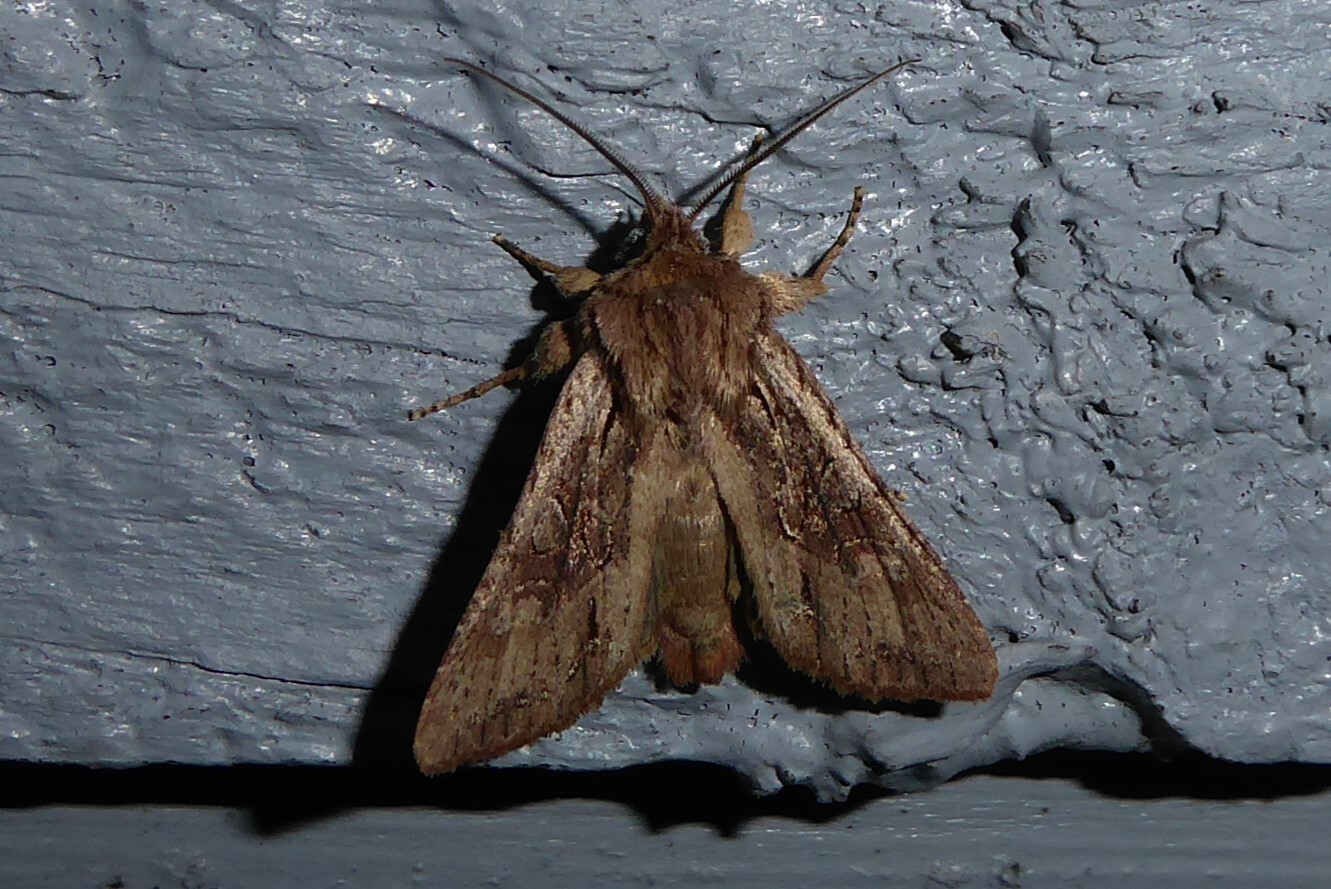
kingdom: Animalia
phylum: Arthropoda
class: Insecta
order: Lepidoptera
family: Noctuidae
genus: Ichneutica
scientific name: Ichneutica
